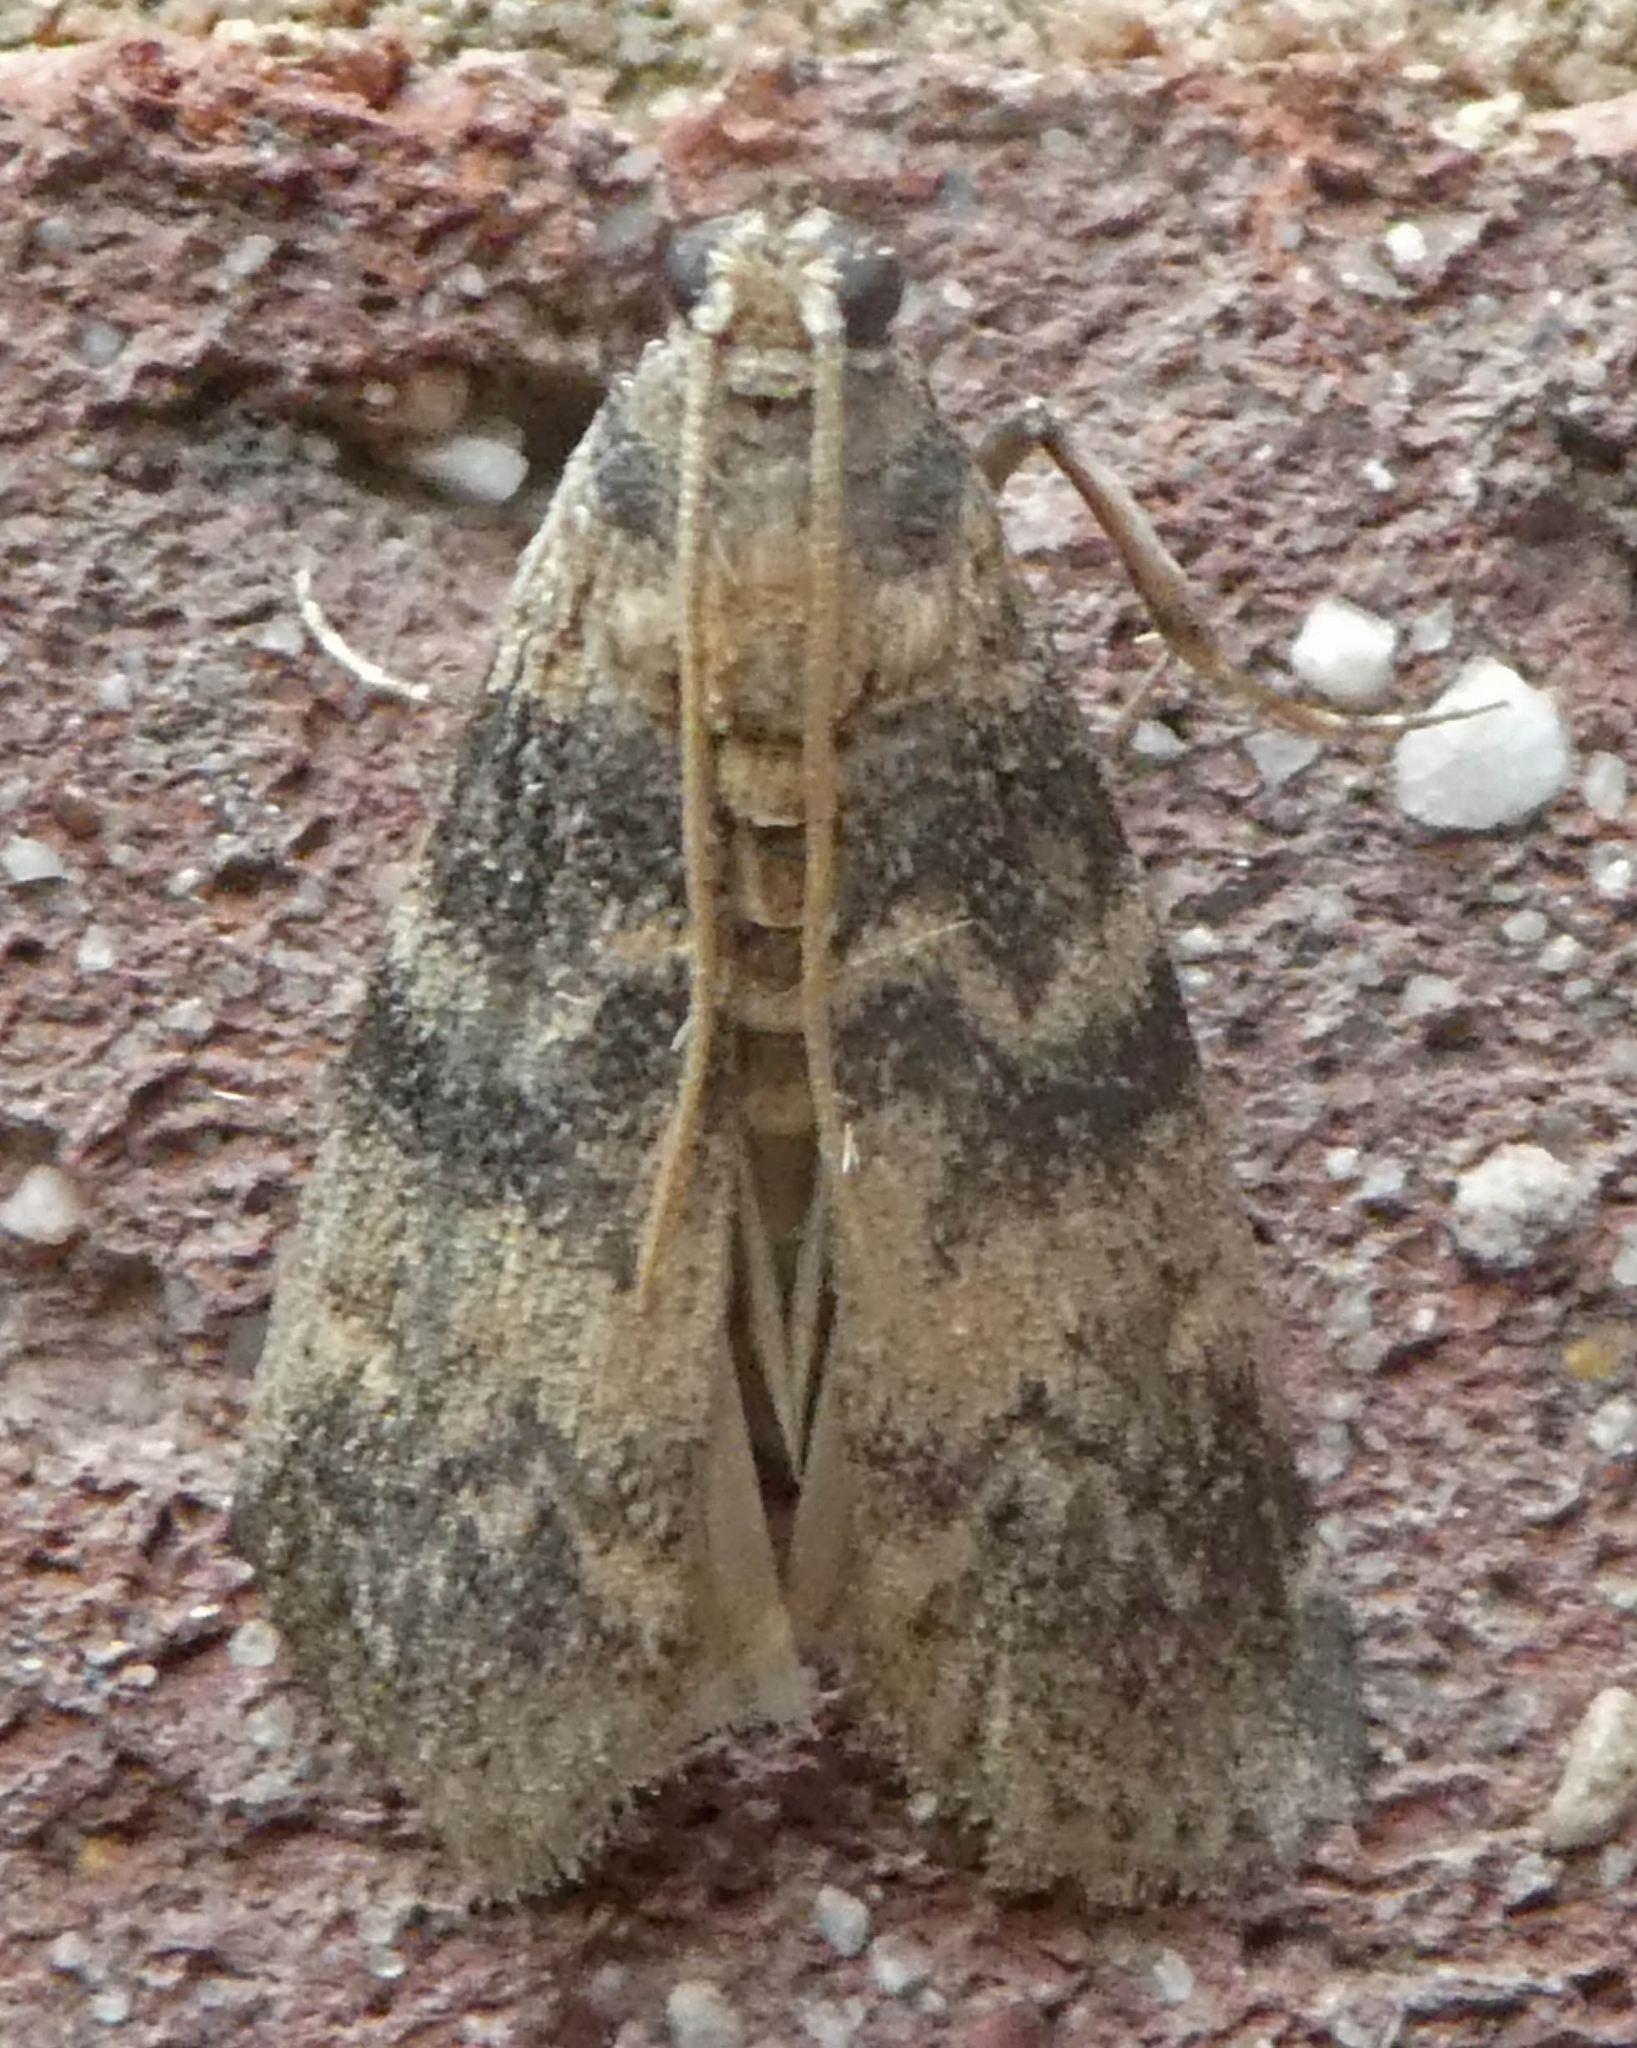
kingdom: Animalia
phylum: Arthropoda
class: Insecta
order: Lepidoptera
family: Pyralidae
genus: Euzophera
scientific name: Euzophera pinguis
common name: Ash-bark knot-horn
